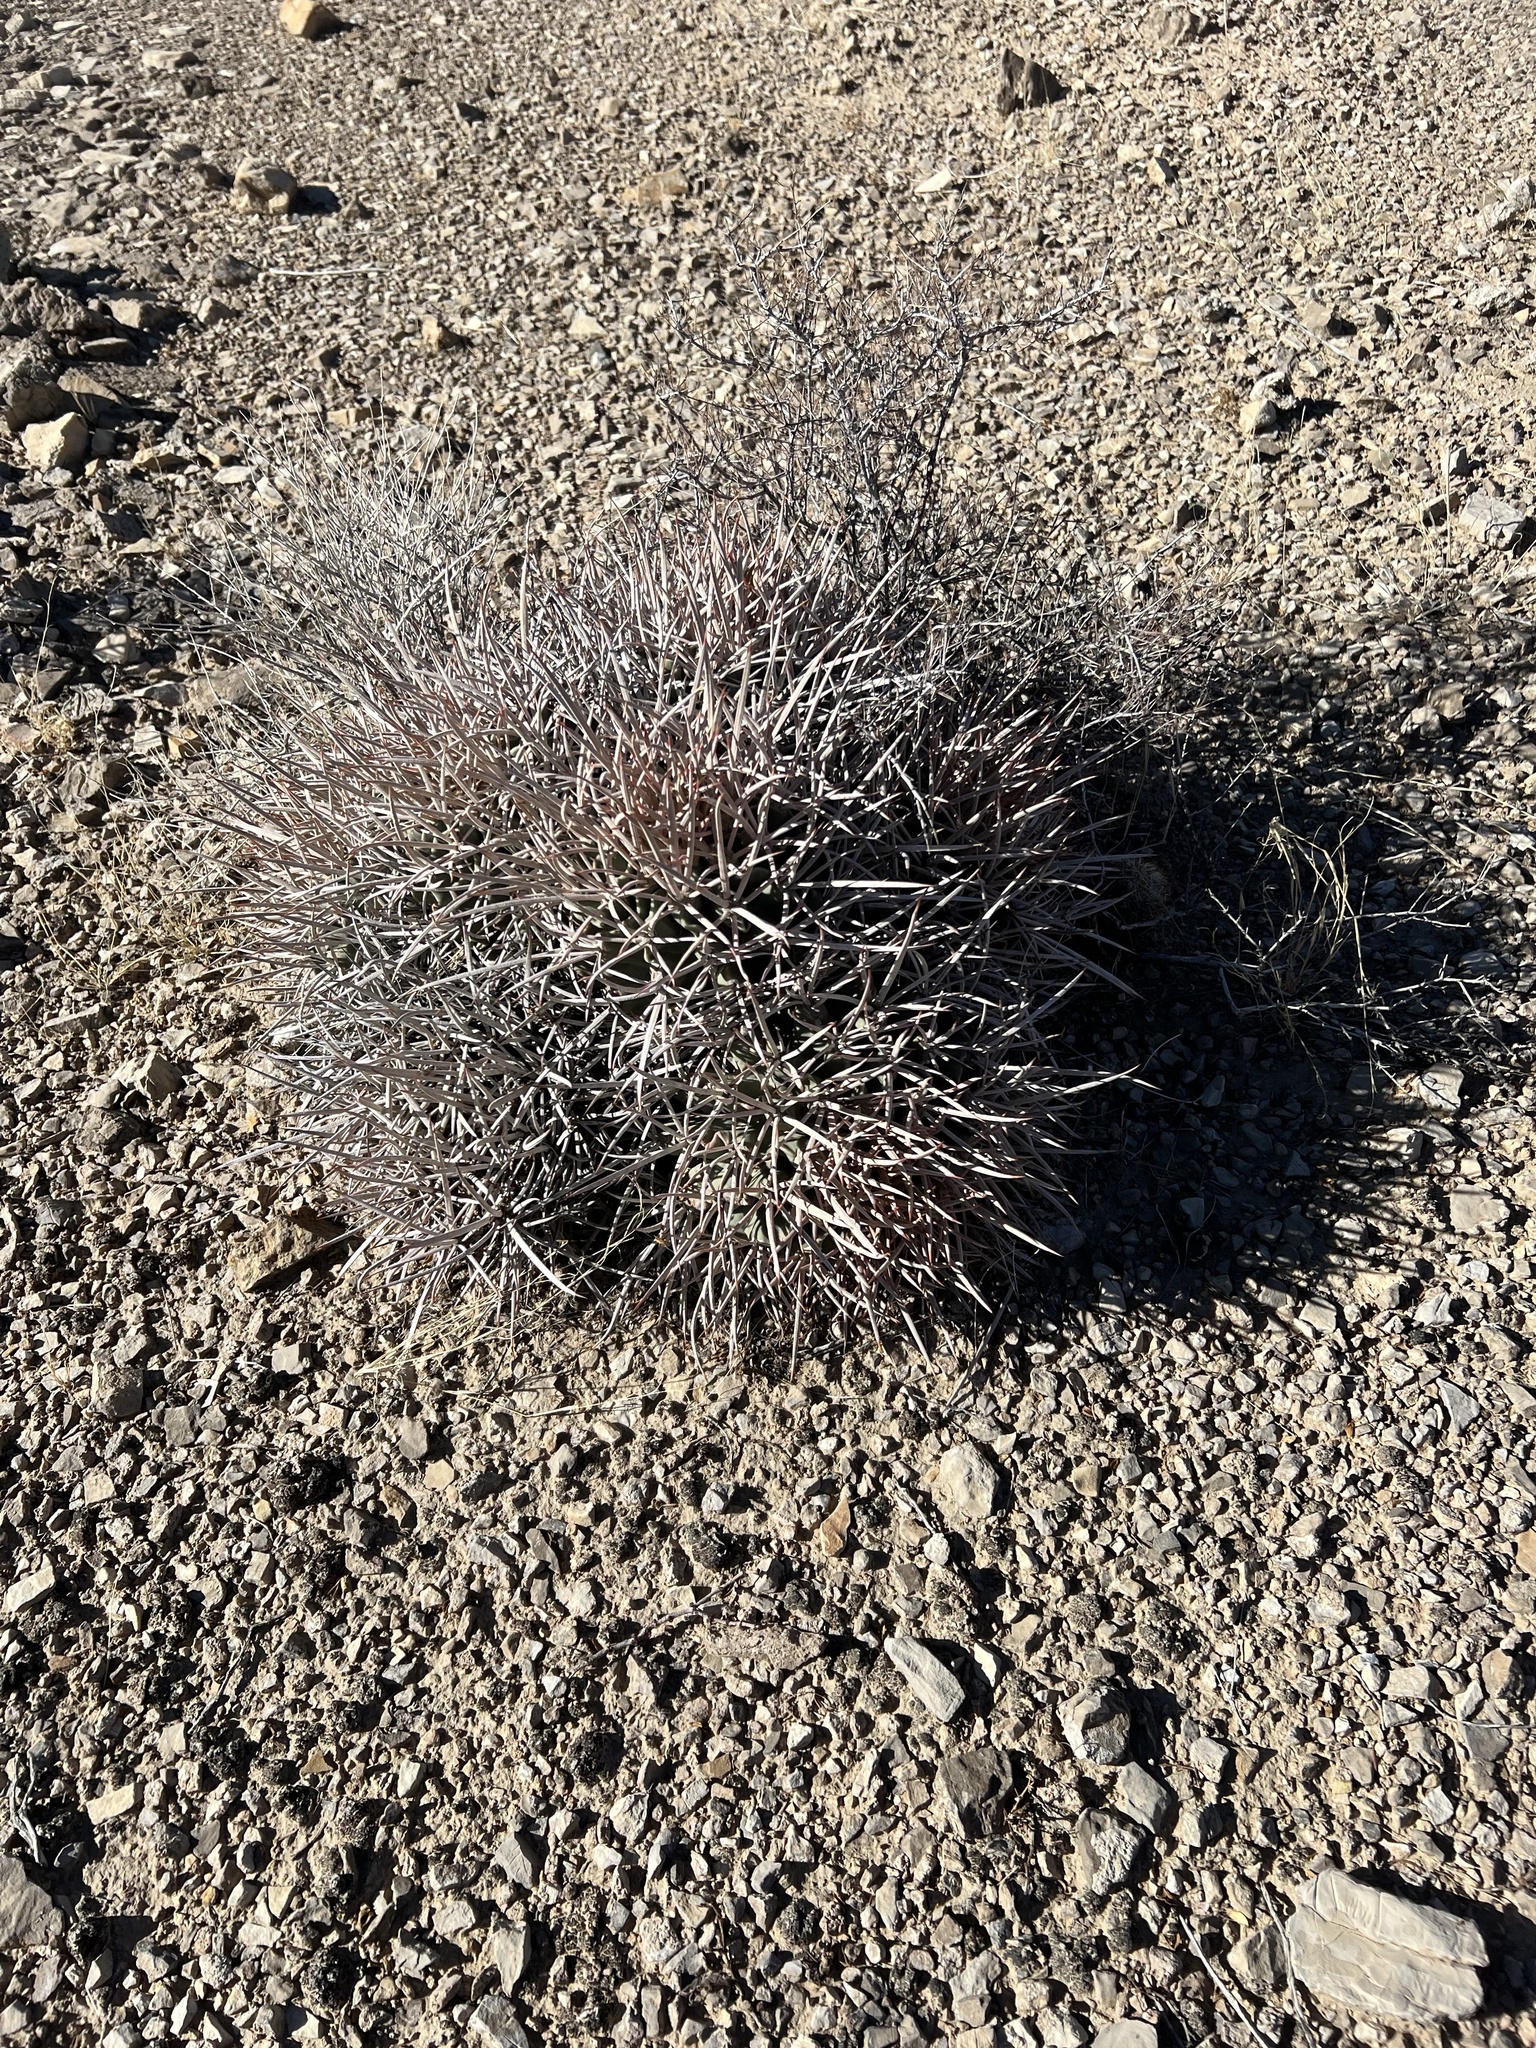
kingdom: Plantae
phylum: Tracheophyta
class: Magnoliopsida
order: Caryophyllales
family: Cactaceae
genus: Echinocactus
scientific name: Echinocactus polycephalus
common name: Cottontop cactus
